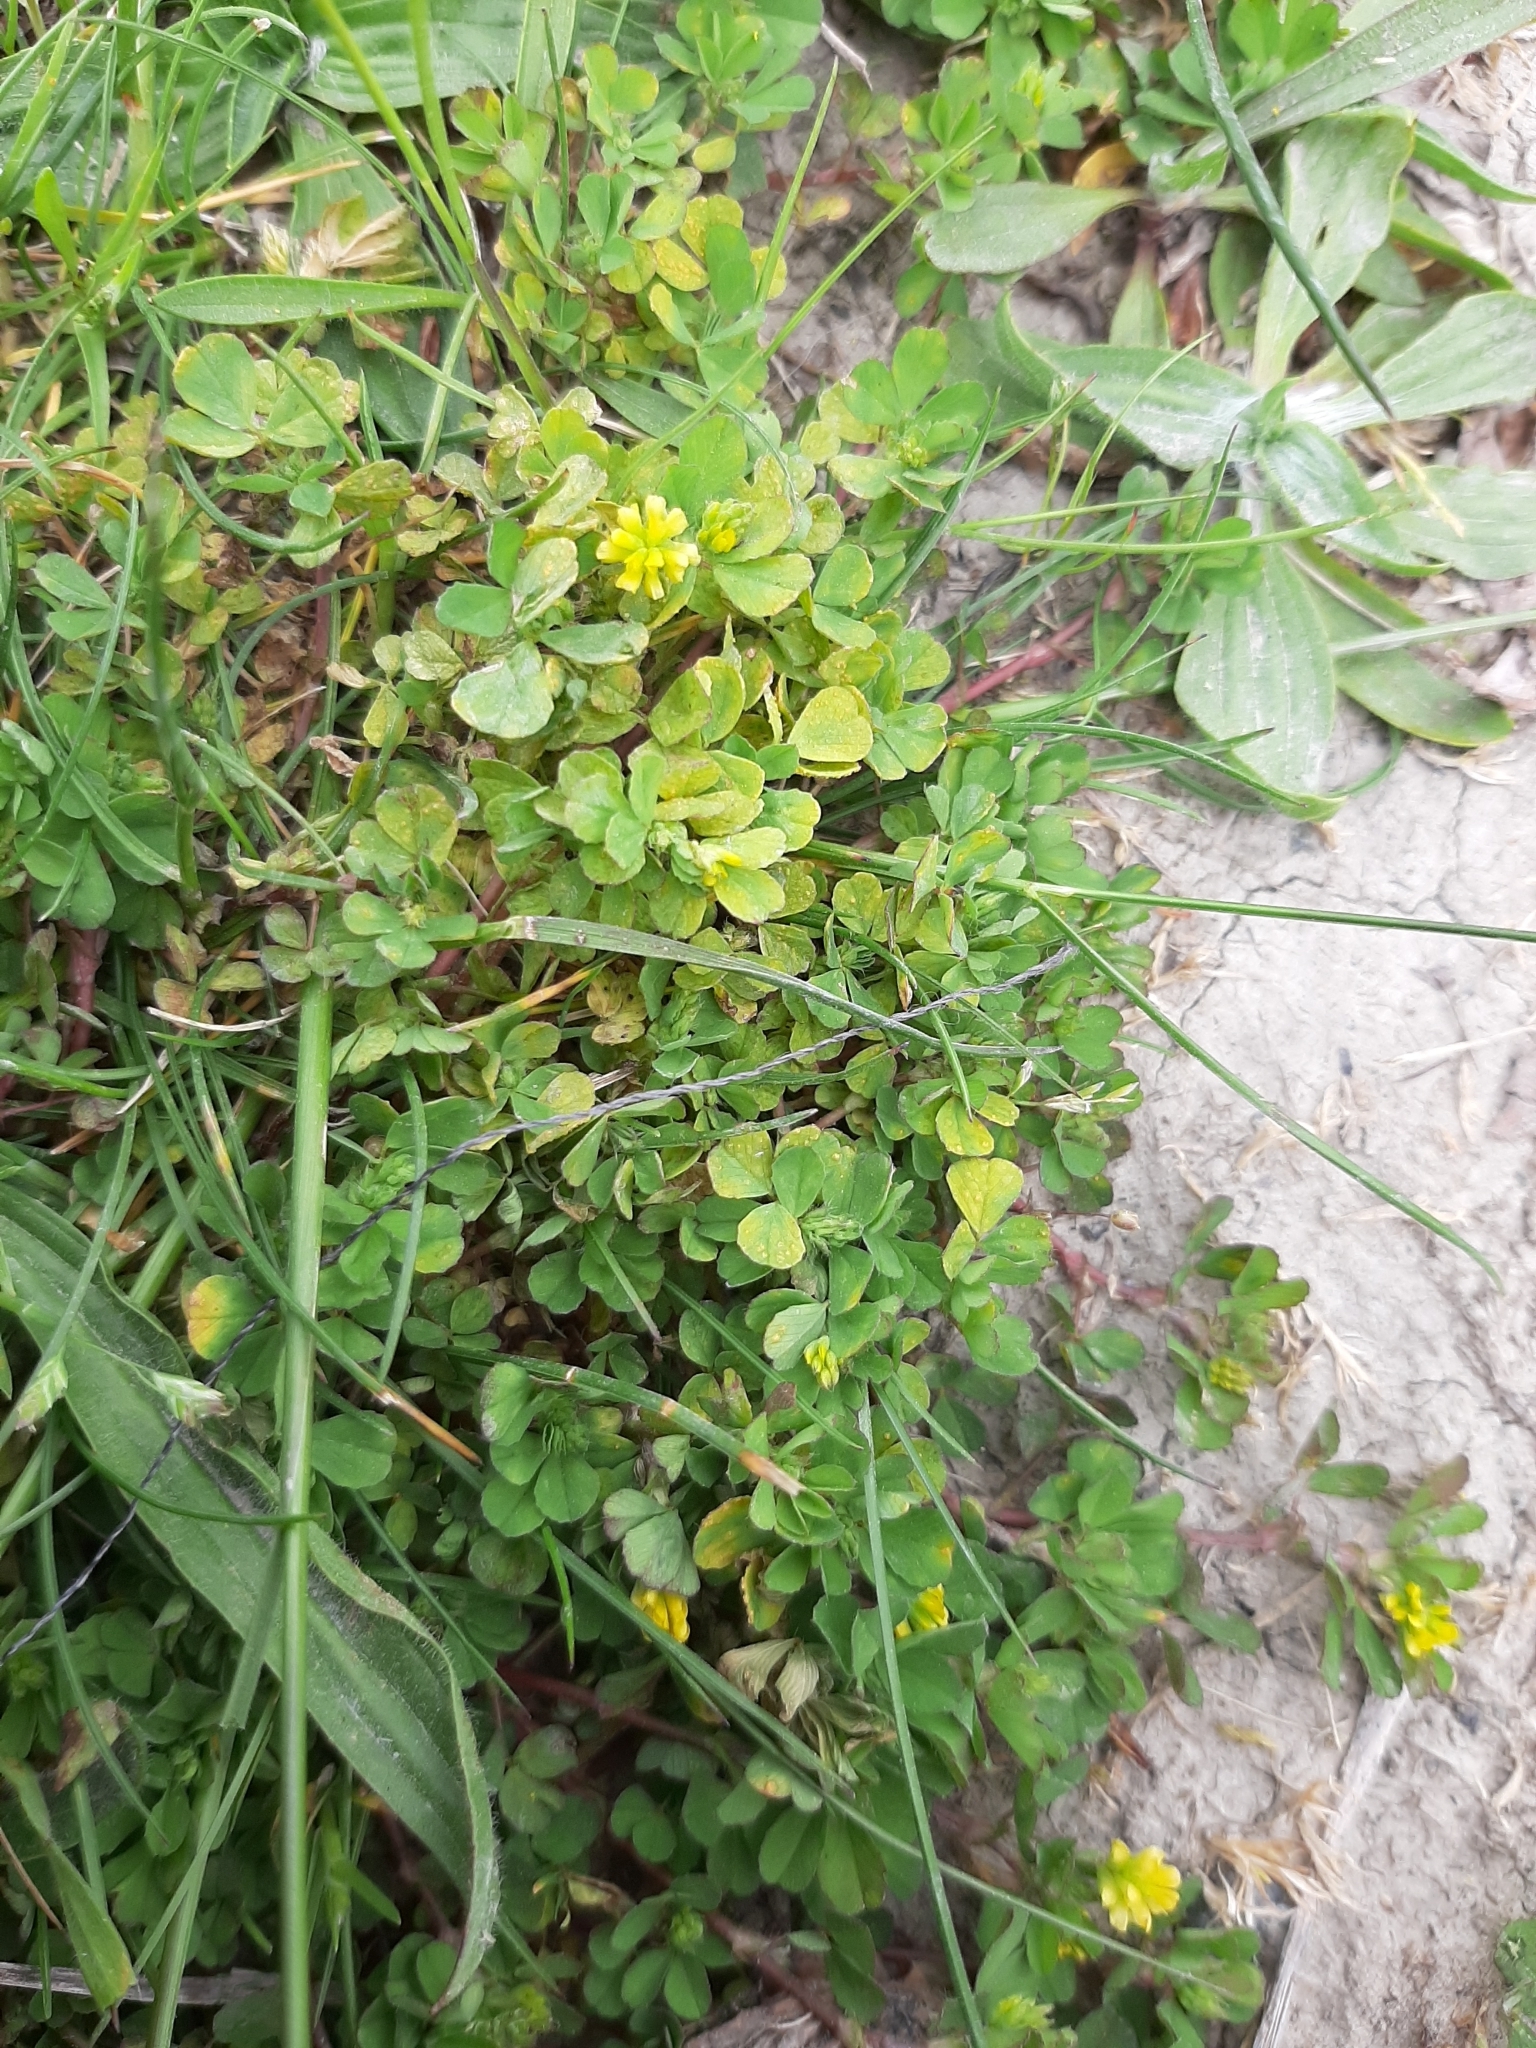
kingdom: Plantae
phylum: Tracheophyta
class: Magnoliopsida
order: Fabales
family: Fabaceae
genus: Trifolium
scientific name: Trifolium dubium
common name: Suckling clover
